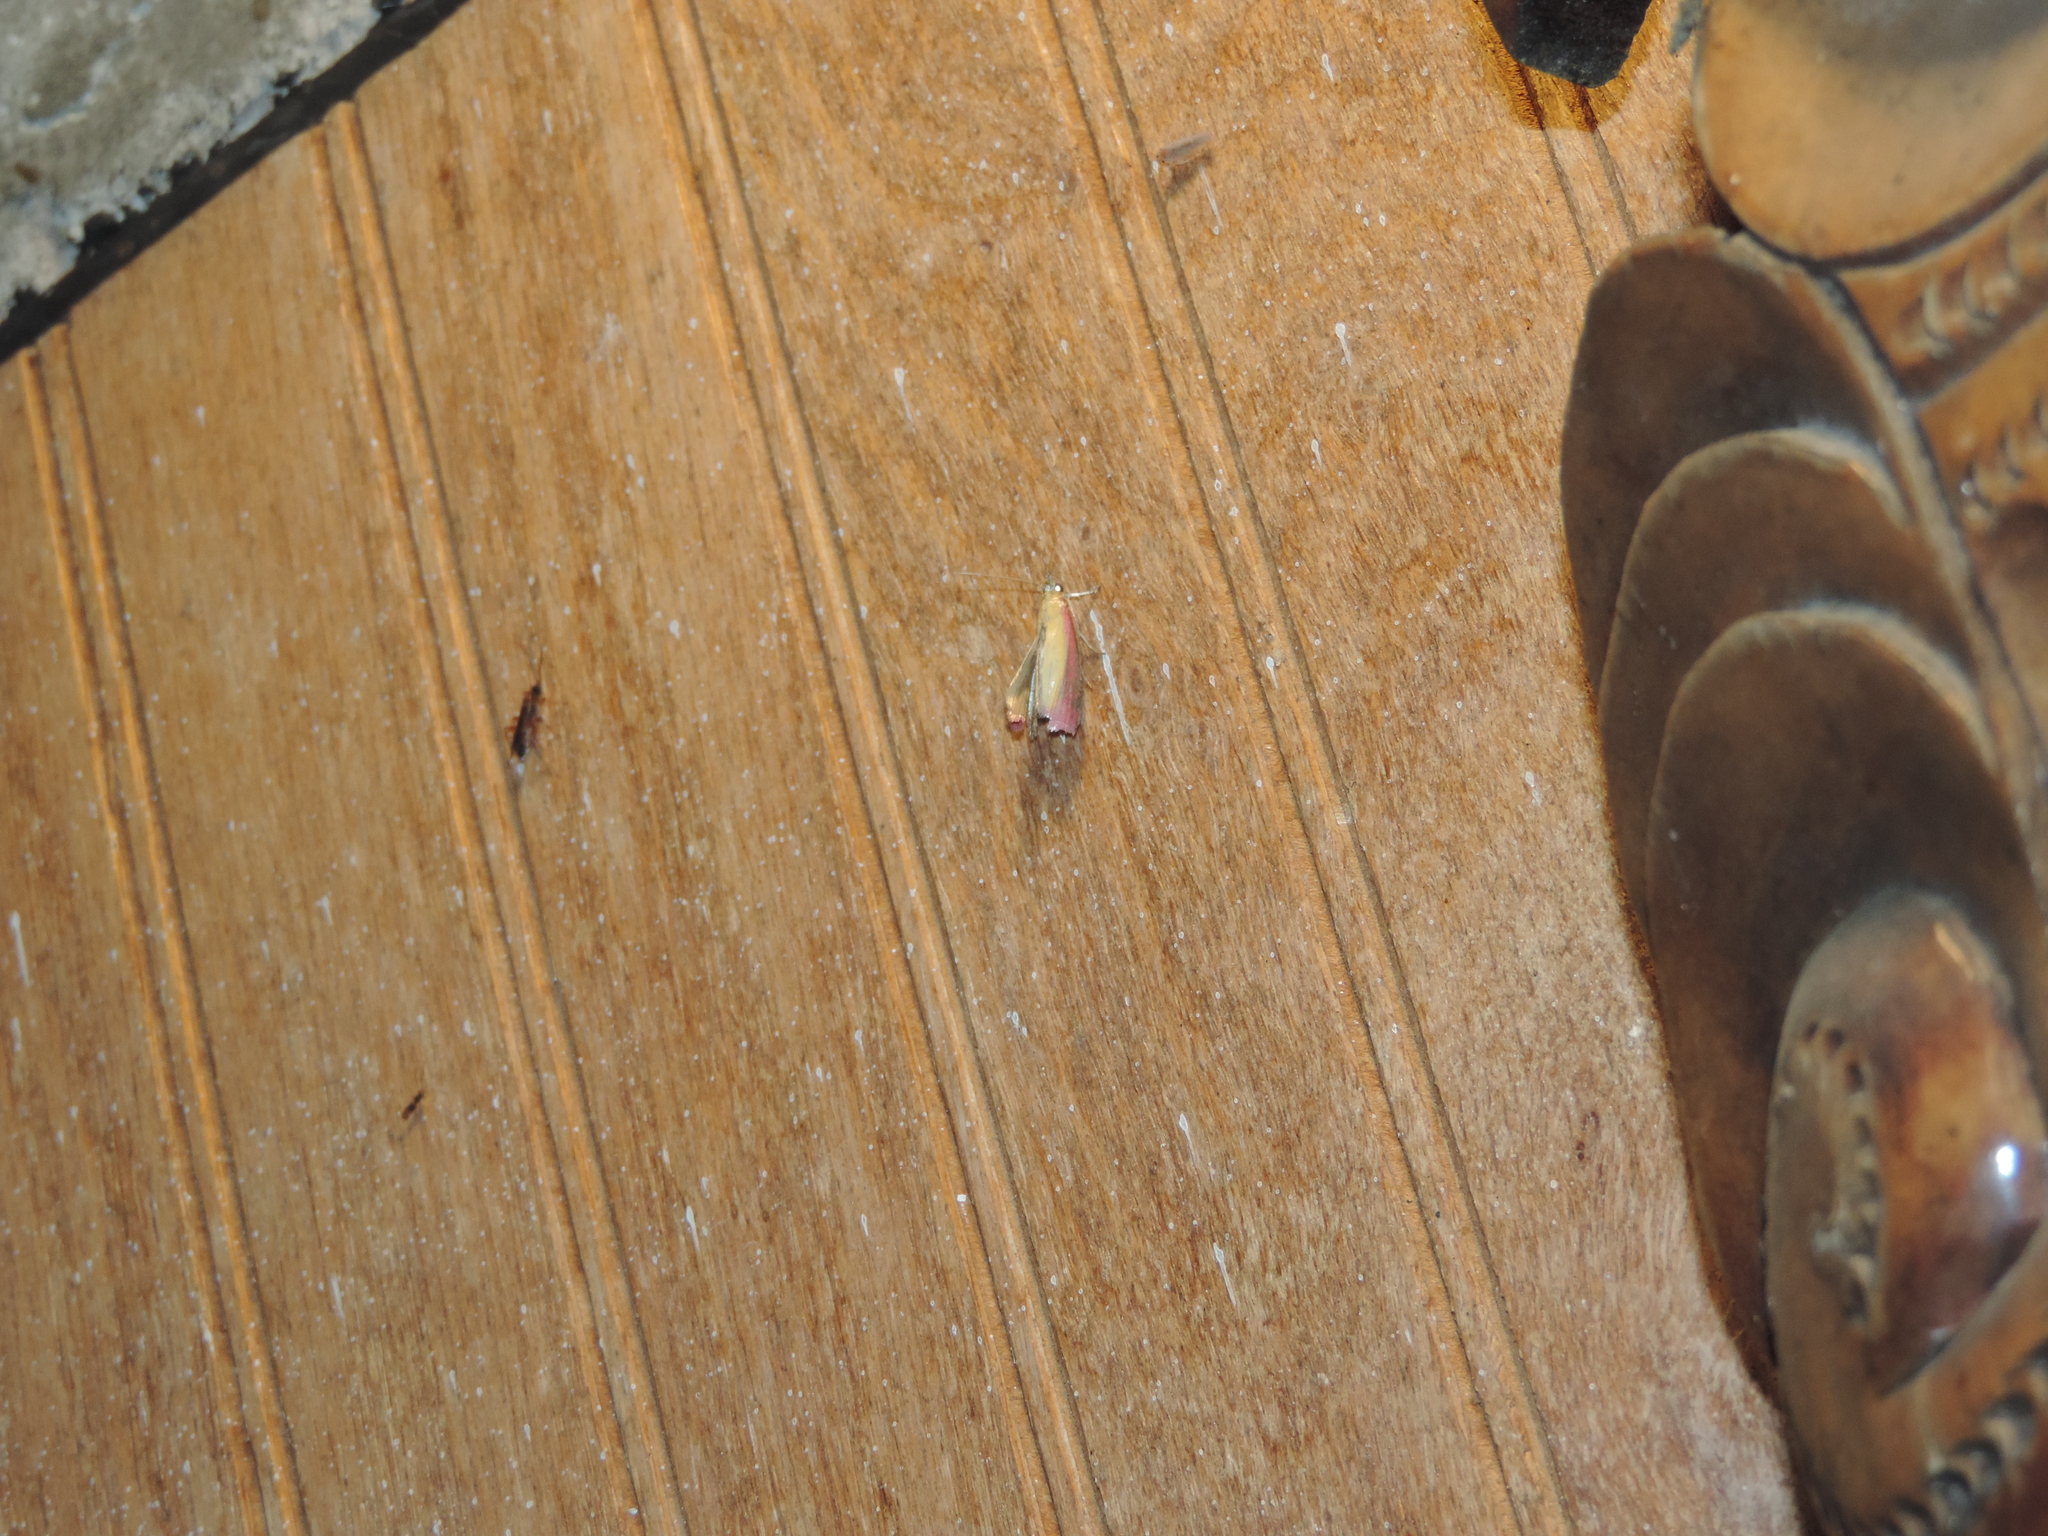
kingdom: Animalia
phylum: Arthropoda
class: Insecta
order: Lepidoptera
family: Pyralidae
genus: Oncocera
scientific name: Oncocera semirubella
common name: Rosy-striped knot-horn
